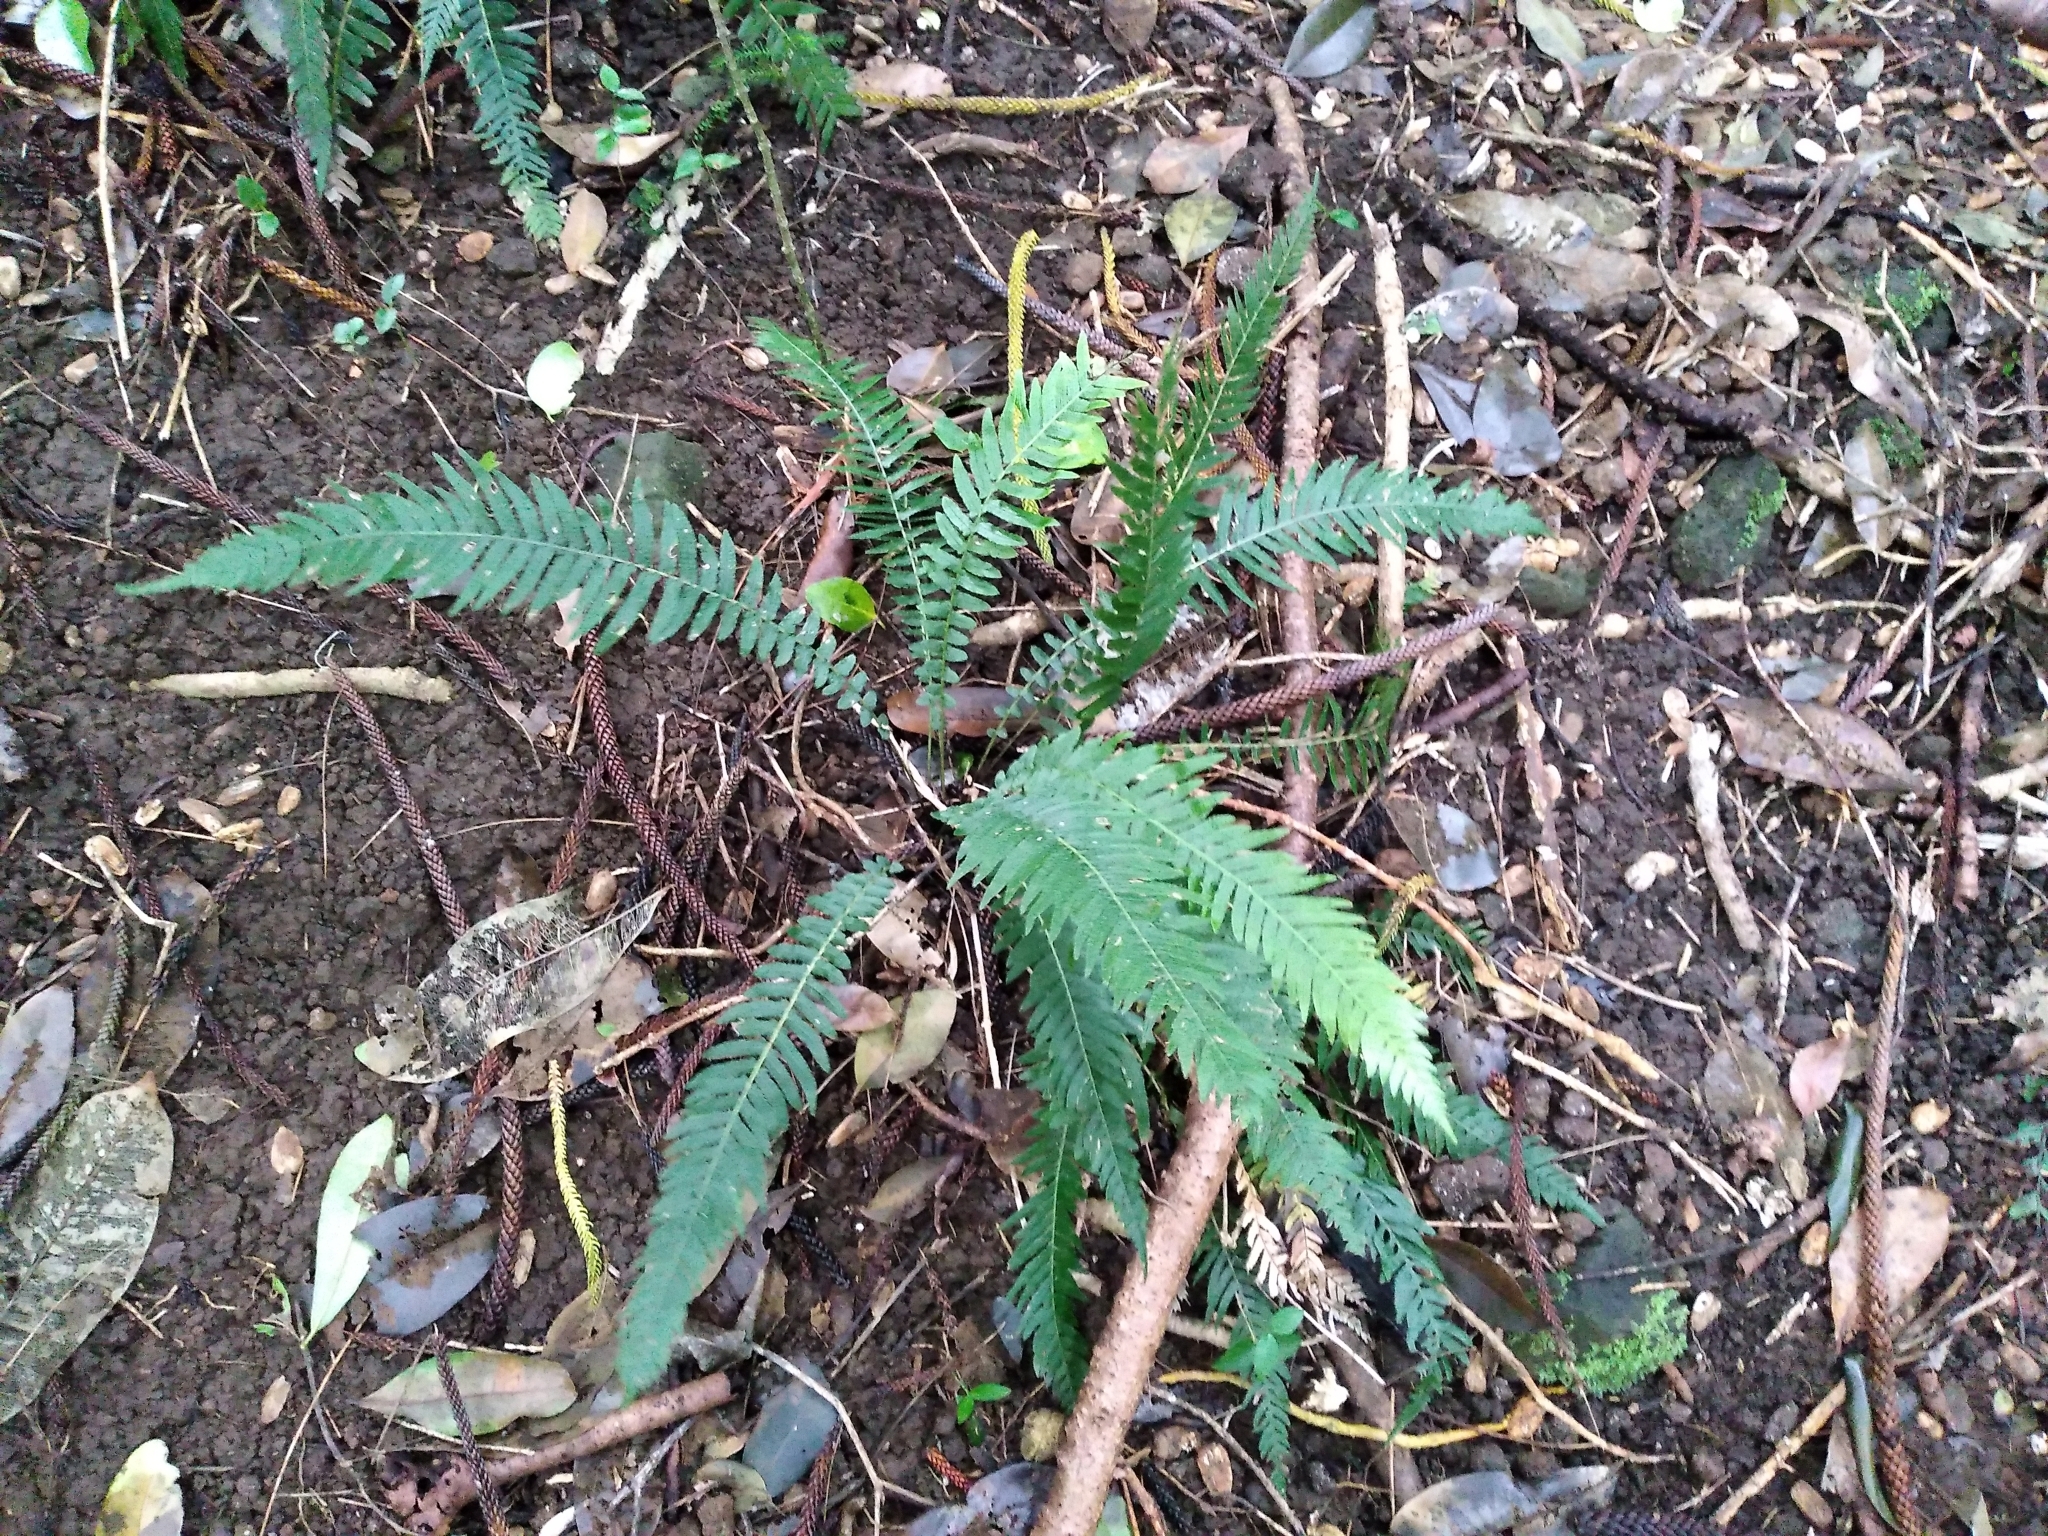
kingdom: Plantae
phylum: Tracheophyta
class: Polypodiopsida
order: Polypodiales
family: Blechnaceae
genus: Doodia
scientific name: Doodia australis
